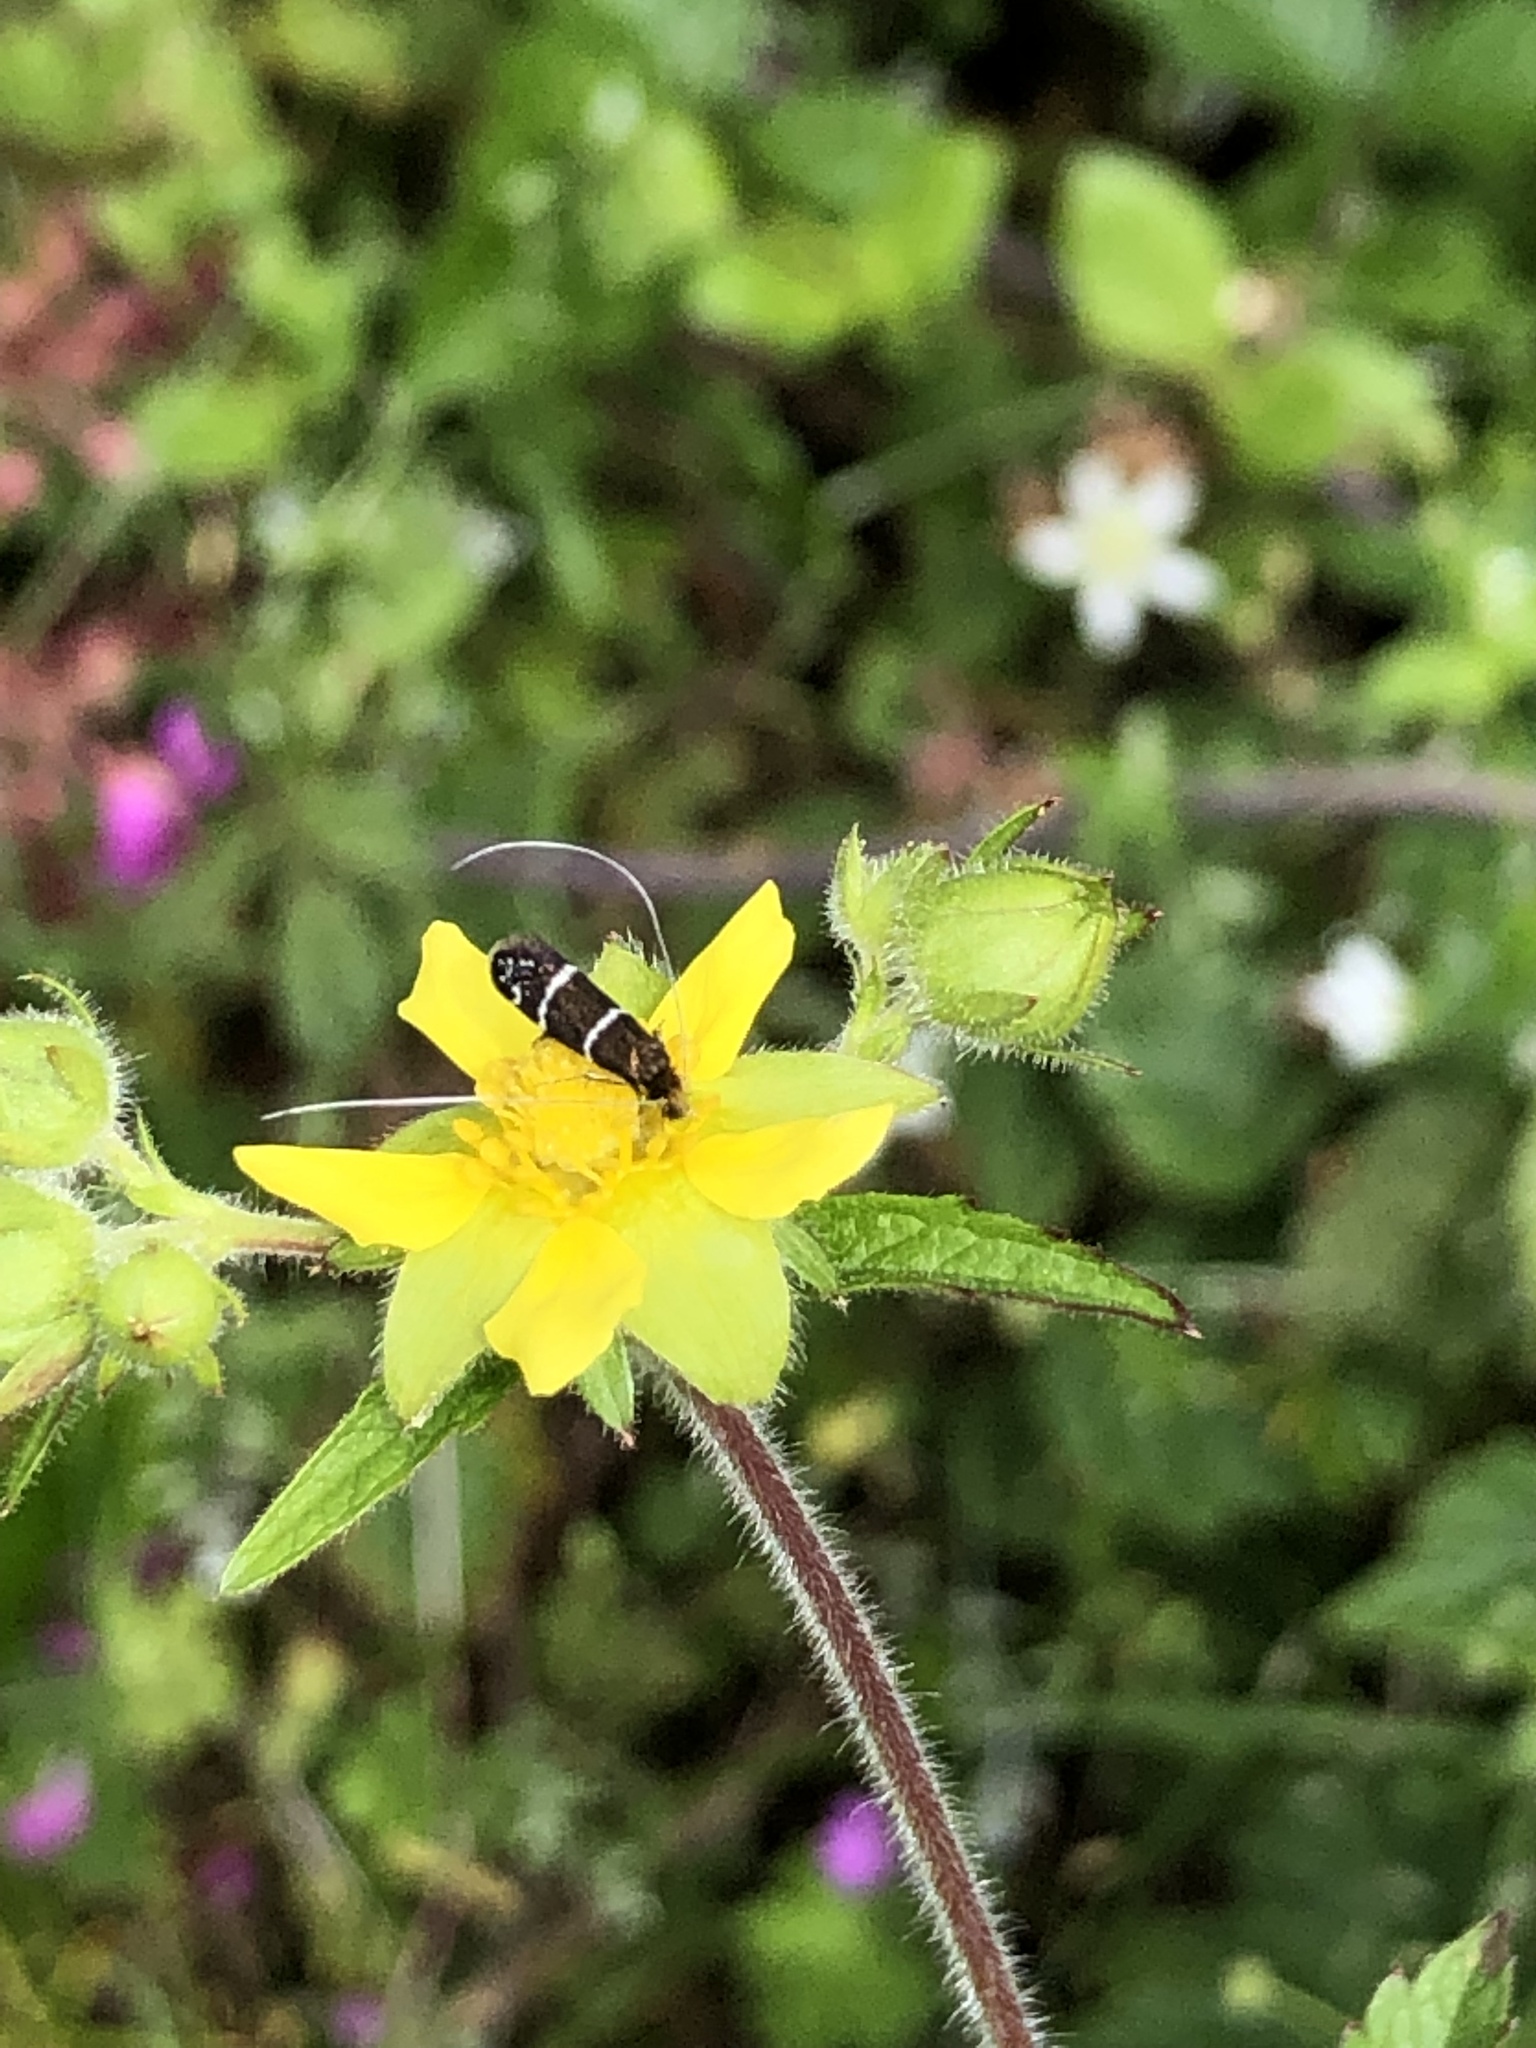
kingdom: Animalia
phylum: Arthropoda
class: Insecta
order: Lepidoptera
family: Adelidae
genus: Adela
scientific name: Adela septentrionella
